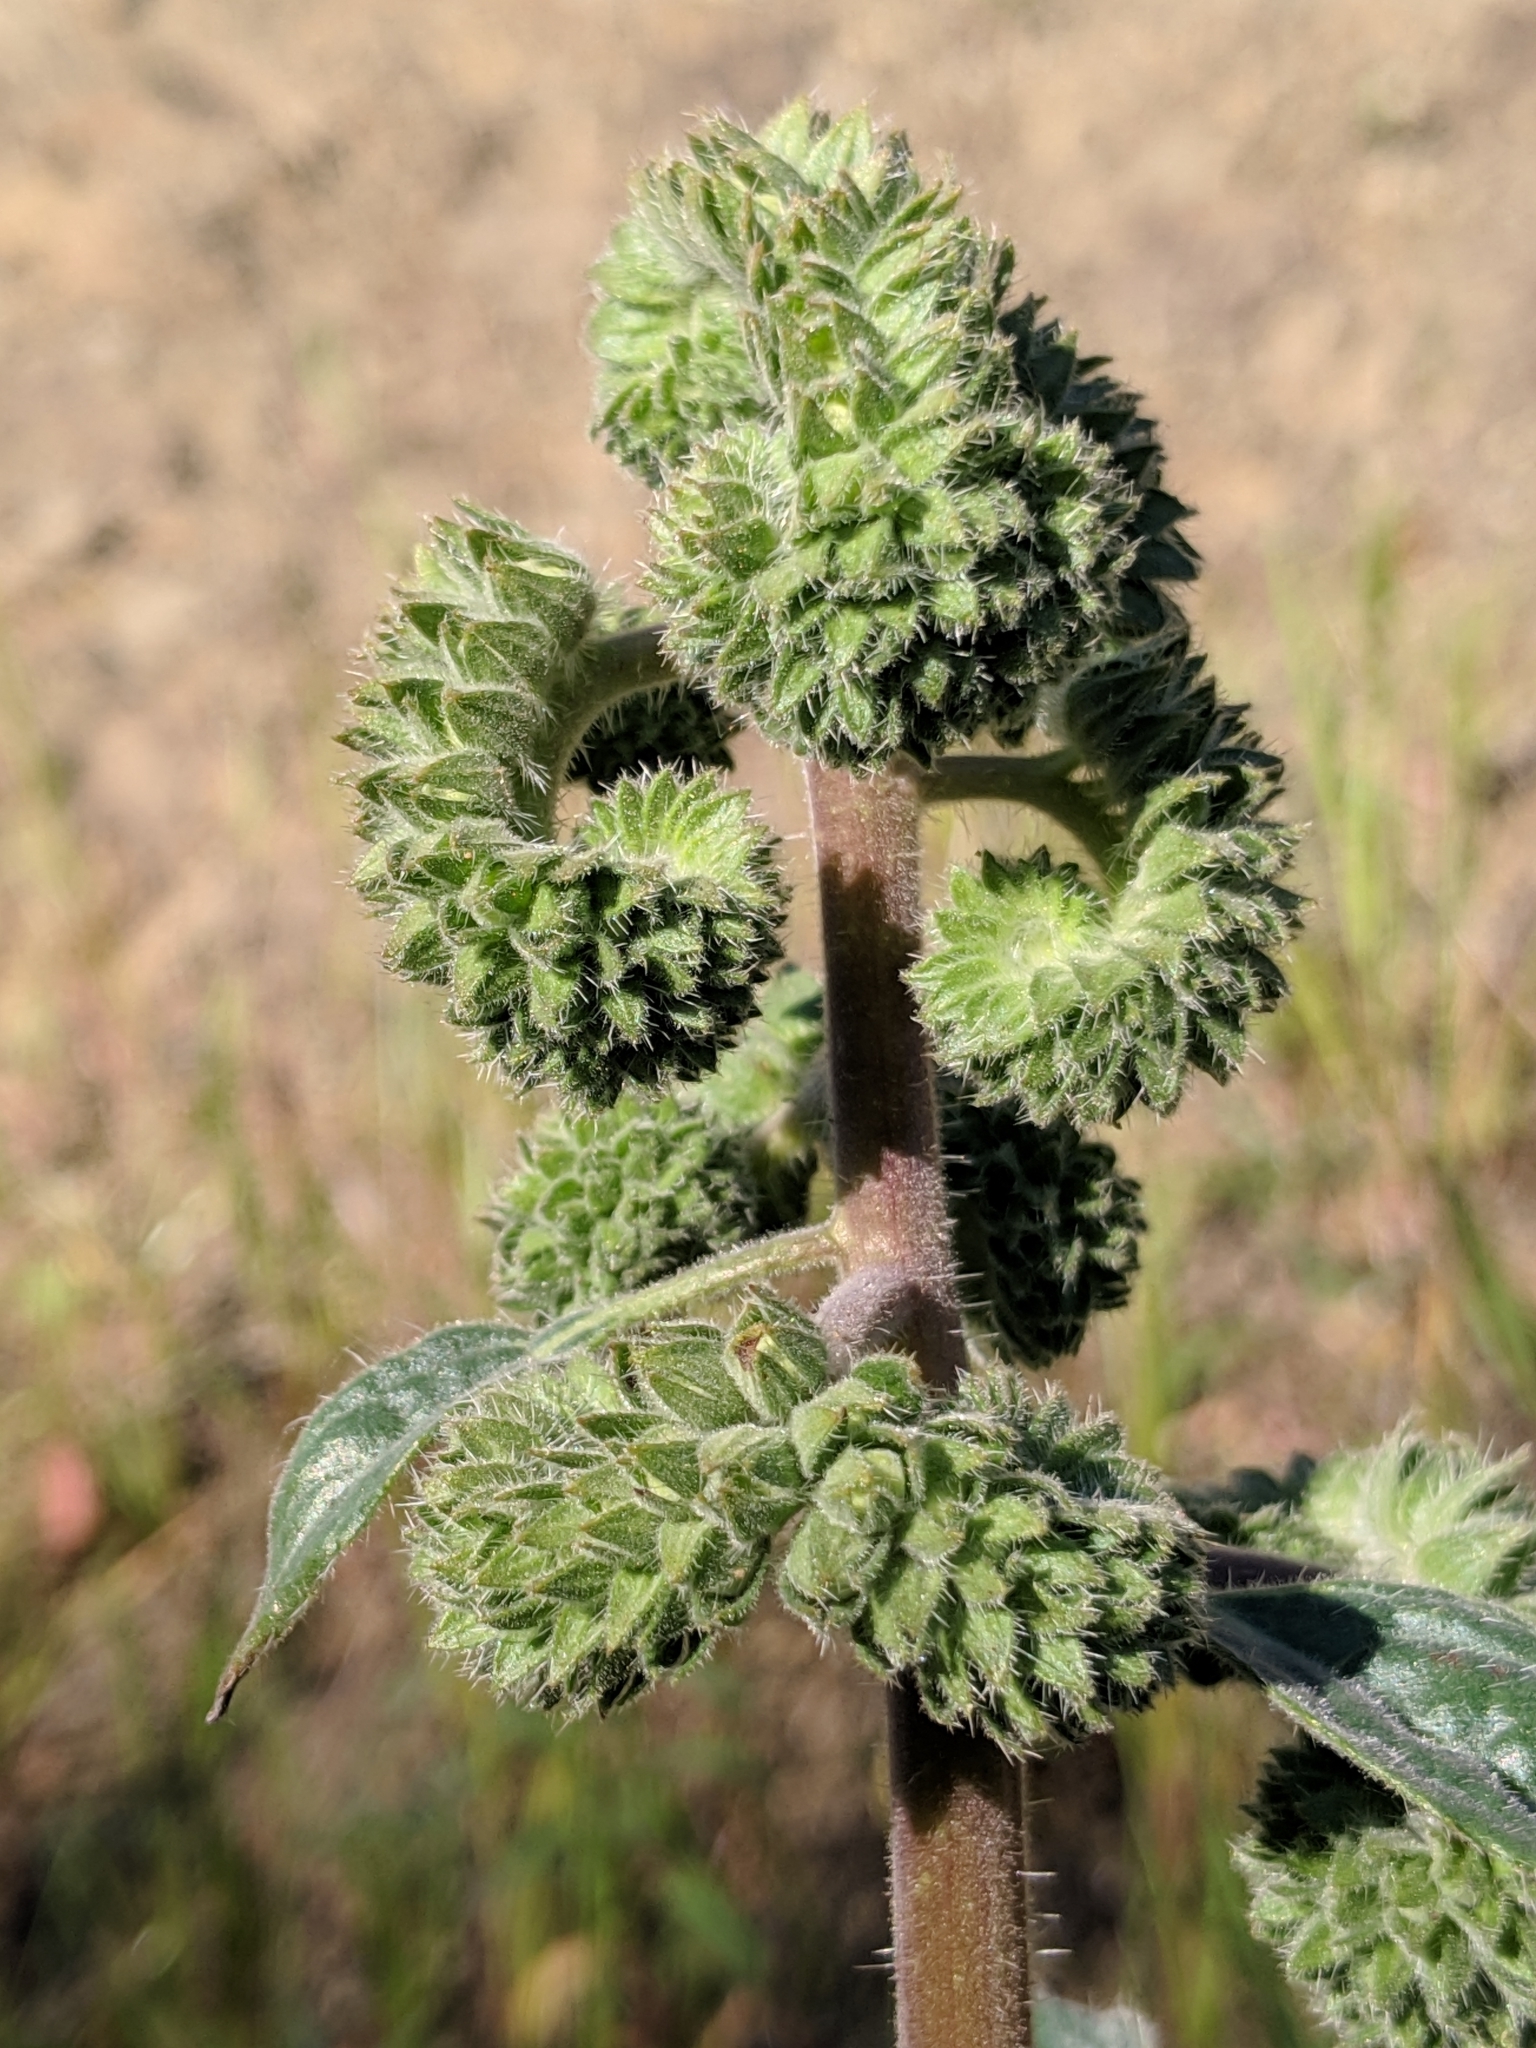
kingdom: Plantae
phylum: Tracheophyta
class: Magnoliopsida
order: Boraginales
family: Hydrophyllaceae
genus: Phacelia
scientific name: Phacelia imbricata
